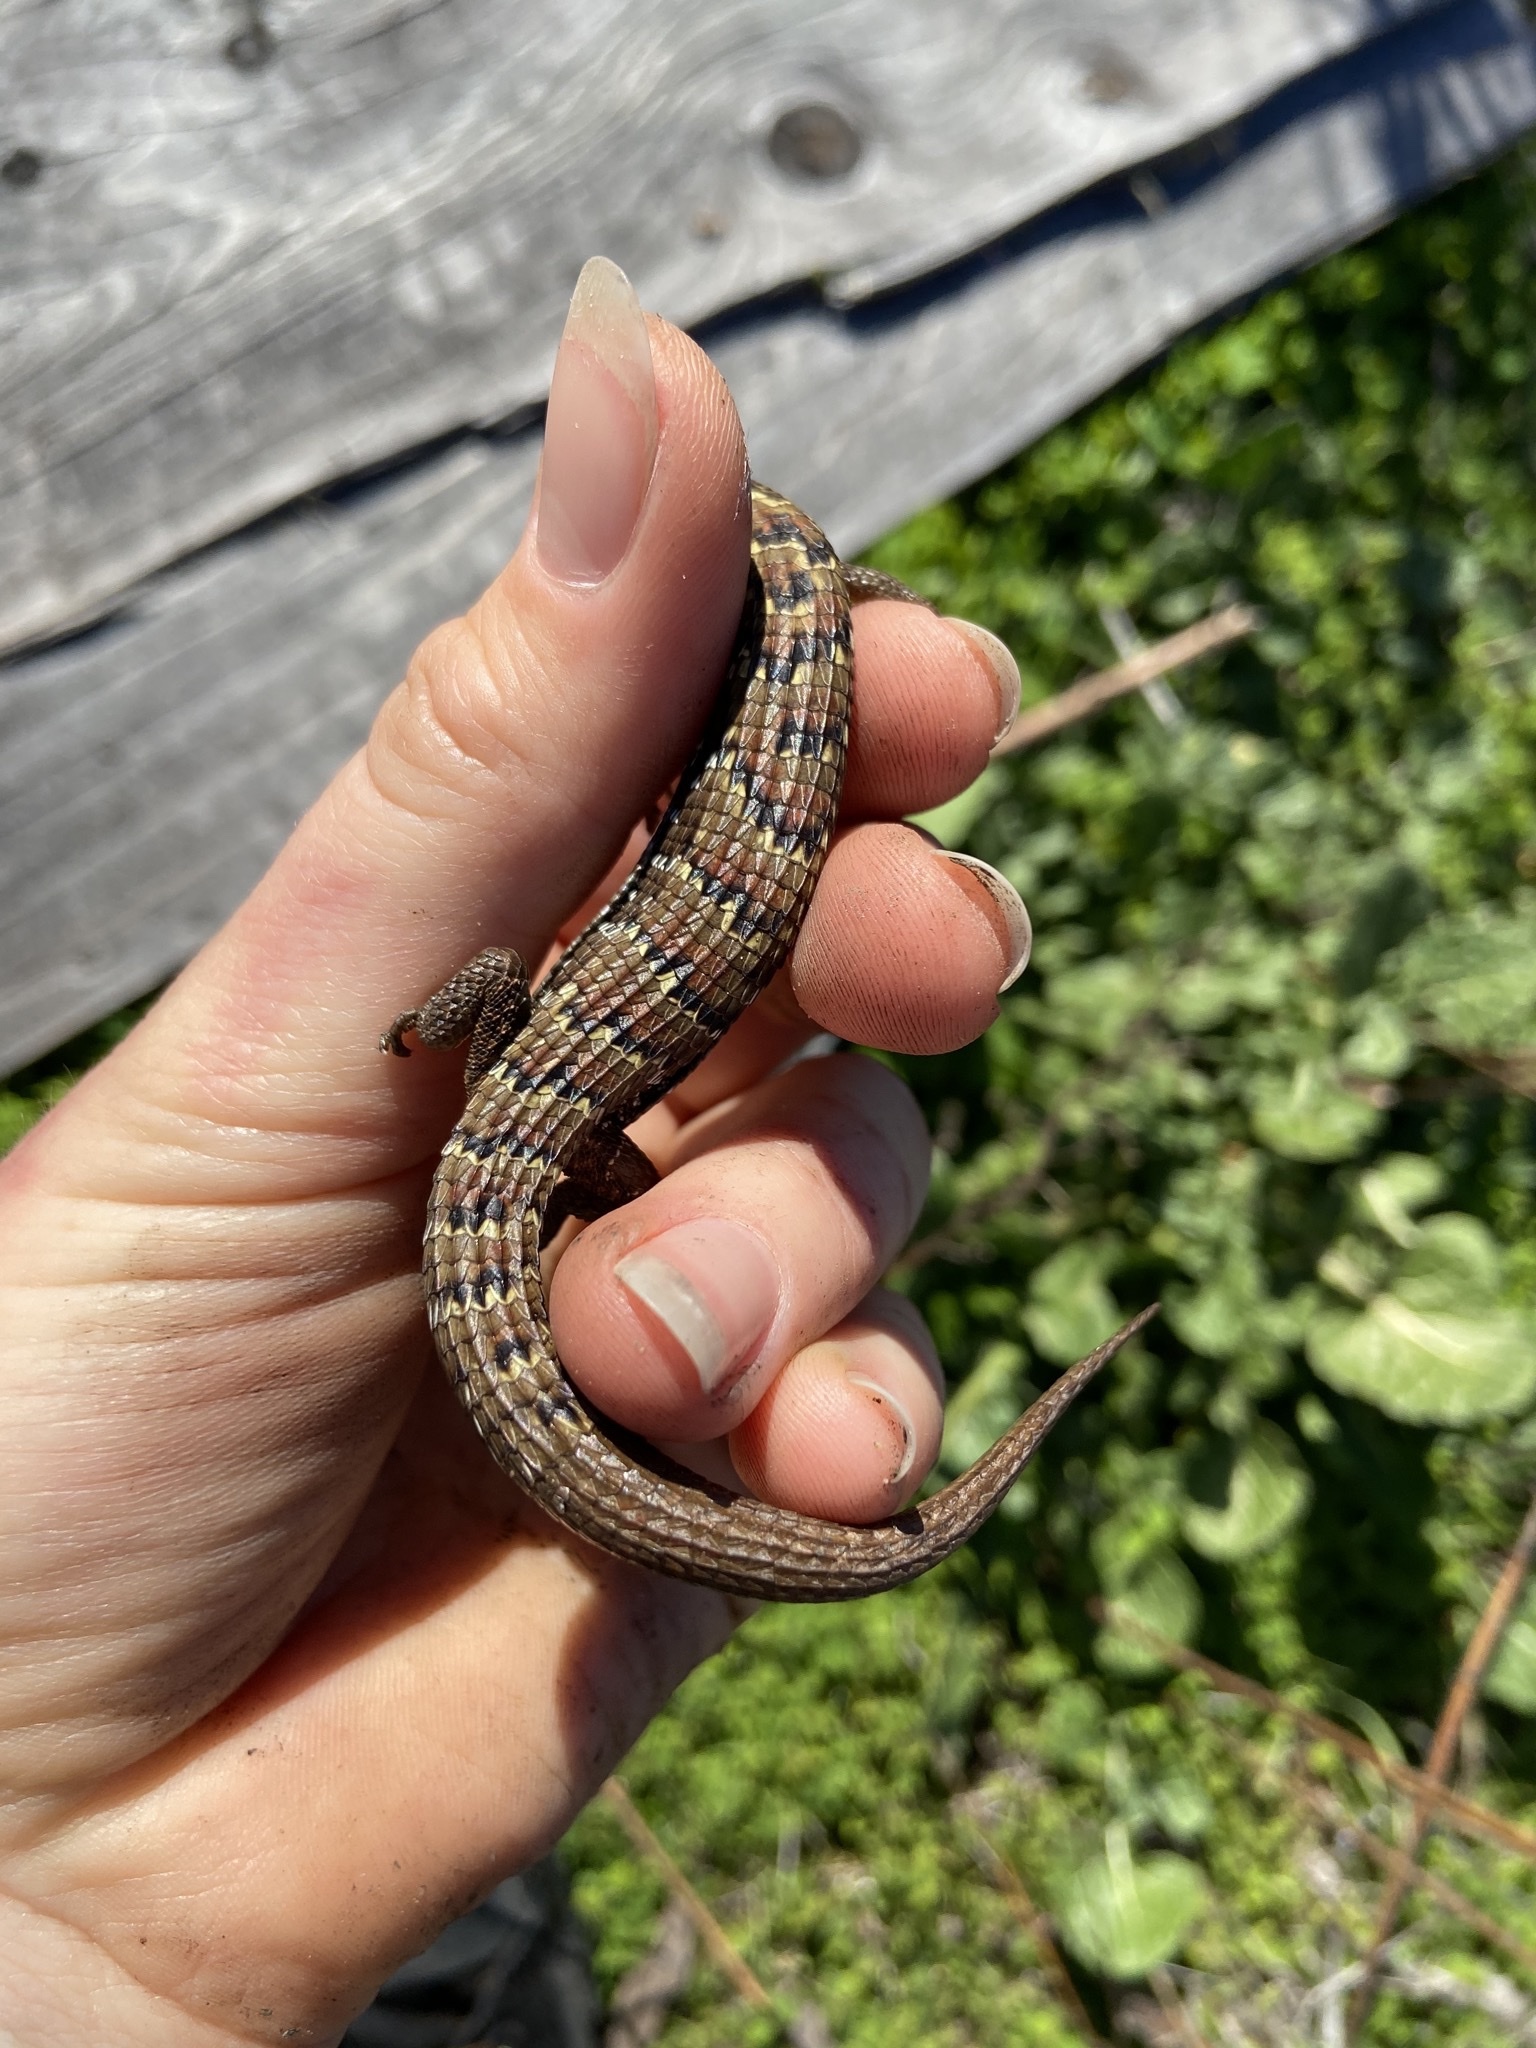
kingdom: Animalia
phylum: Chordata
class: Squamata
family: Anguidae
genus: Elgaria
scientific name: Elgaria multicarinata
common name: Southern alligator lizard
